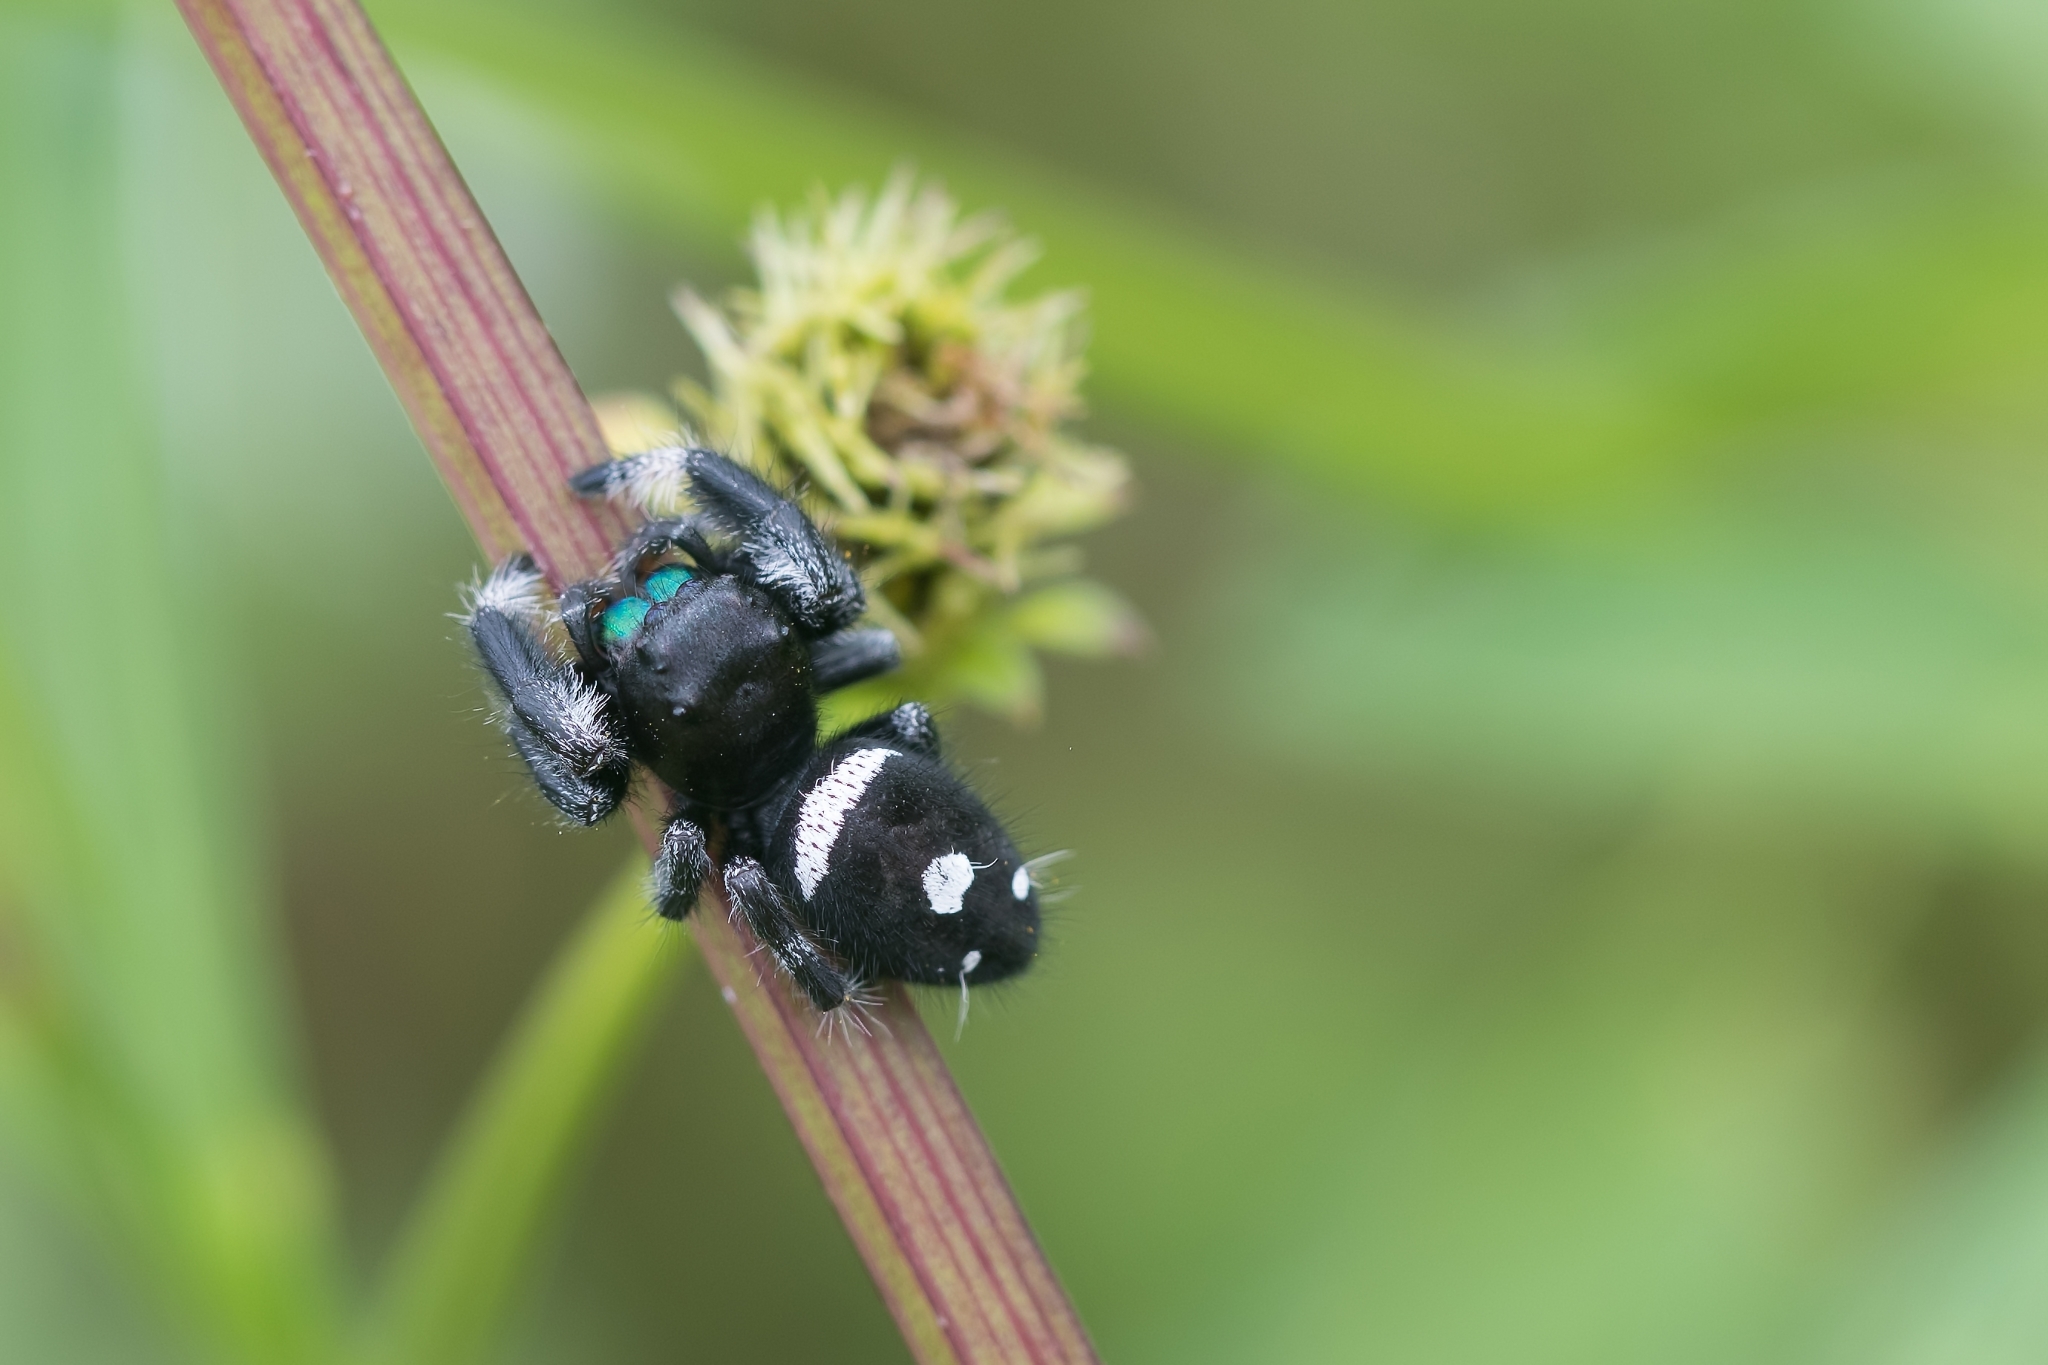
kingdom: Animalia
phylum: Arthropoda
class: Arachnida
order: Araneae
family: Salticidae
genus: Phidippus
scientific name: Phidippus regius
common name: Regal jumper
